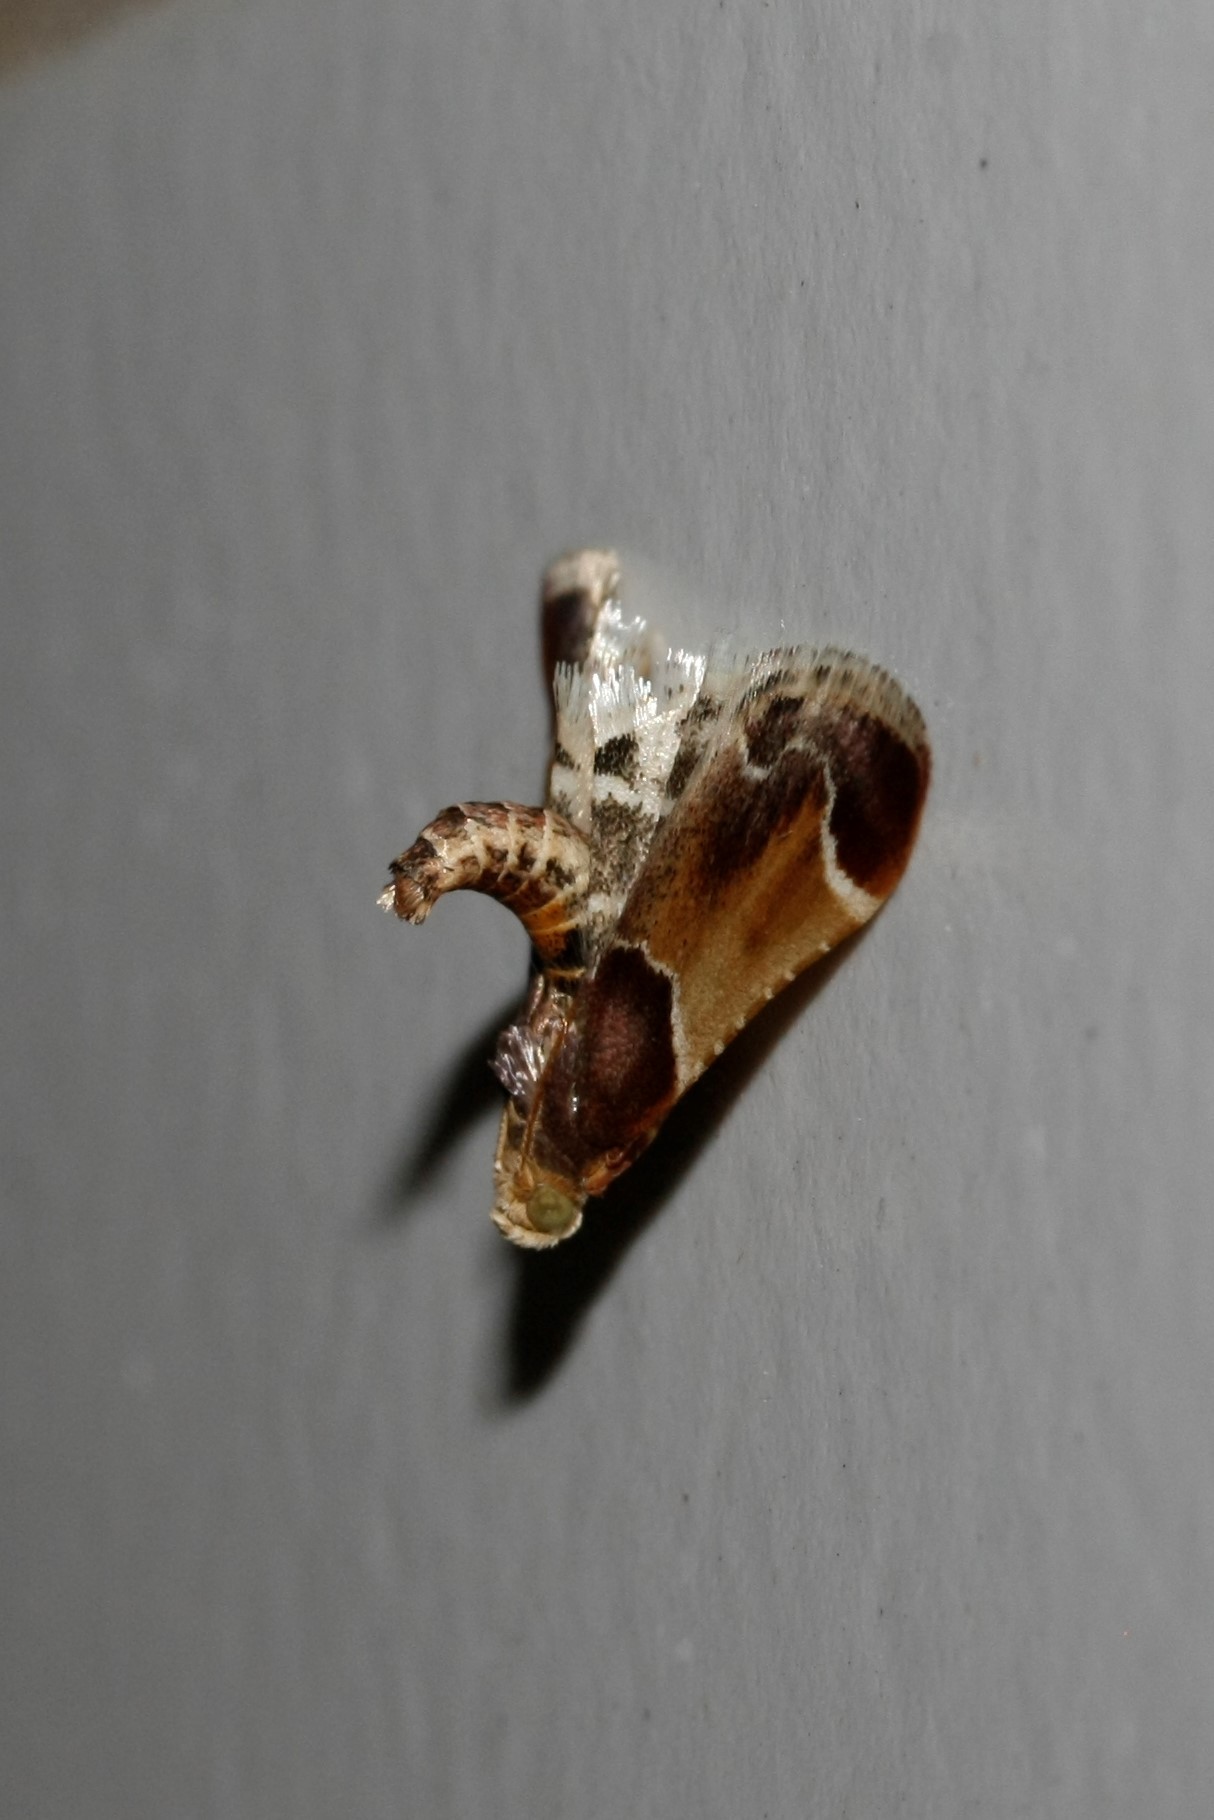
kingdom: Animalia
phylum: Arthropoda
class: Insecta
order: Lepidoptera
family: Pyralidae
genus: Pyralis
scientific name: Pyralis farinalis
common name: Meal moth
